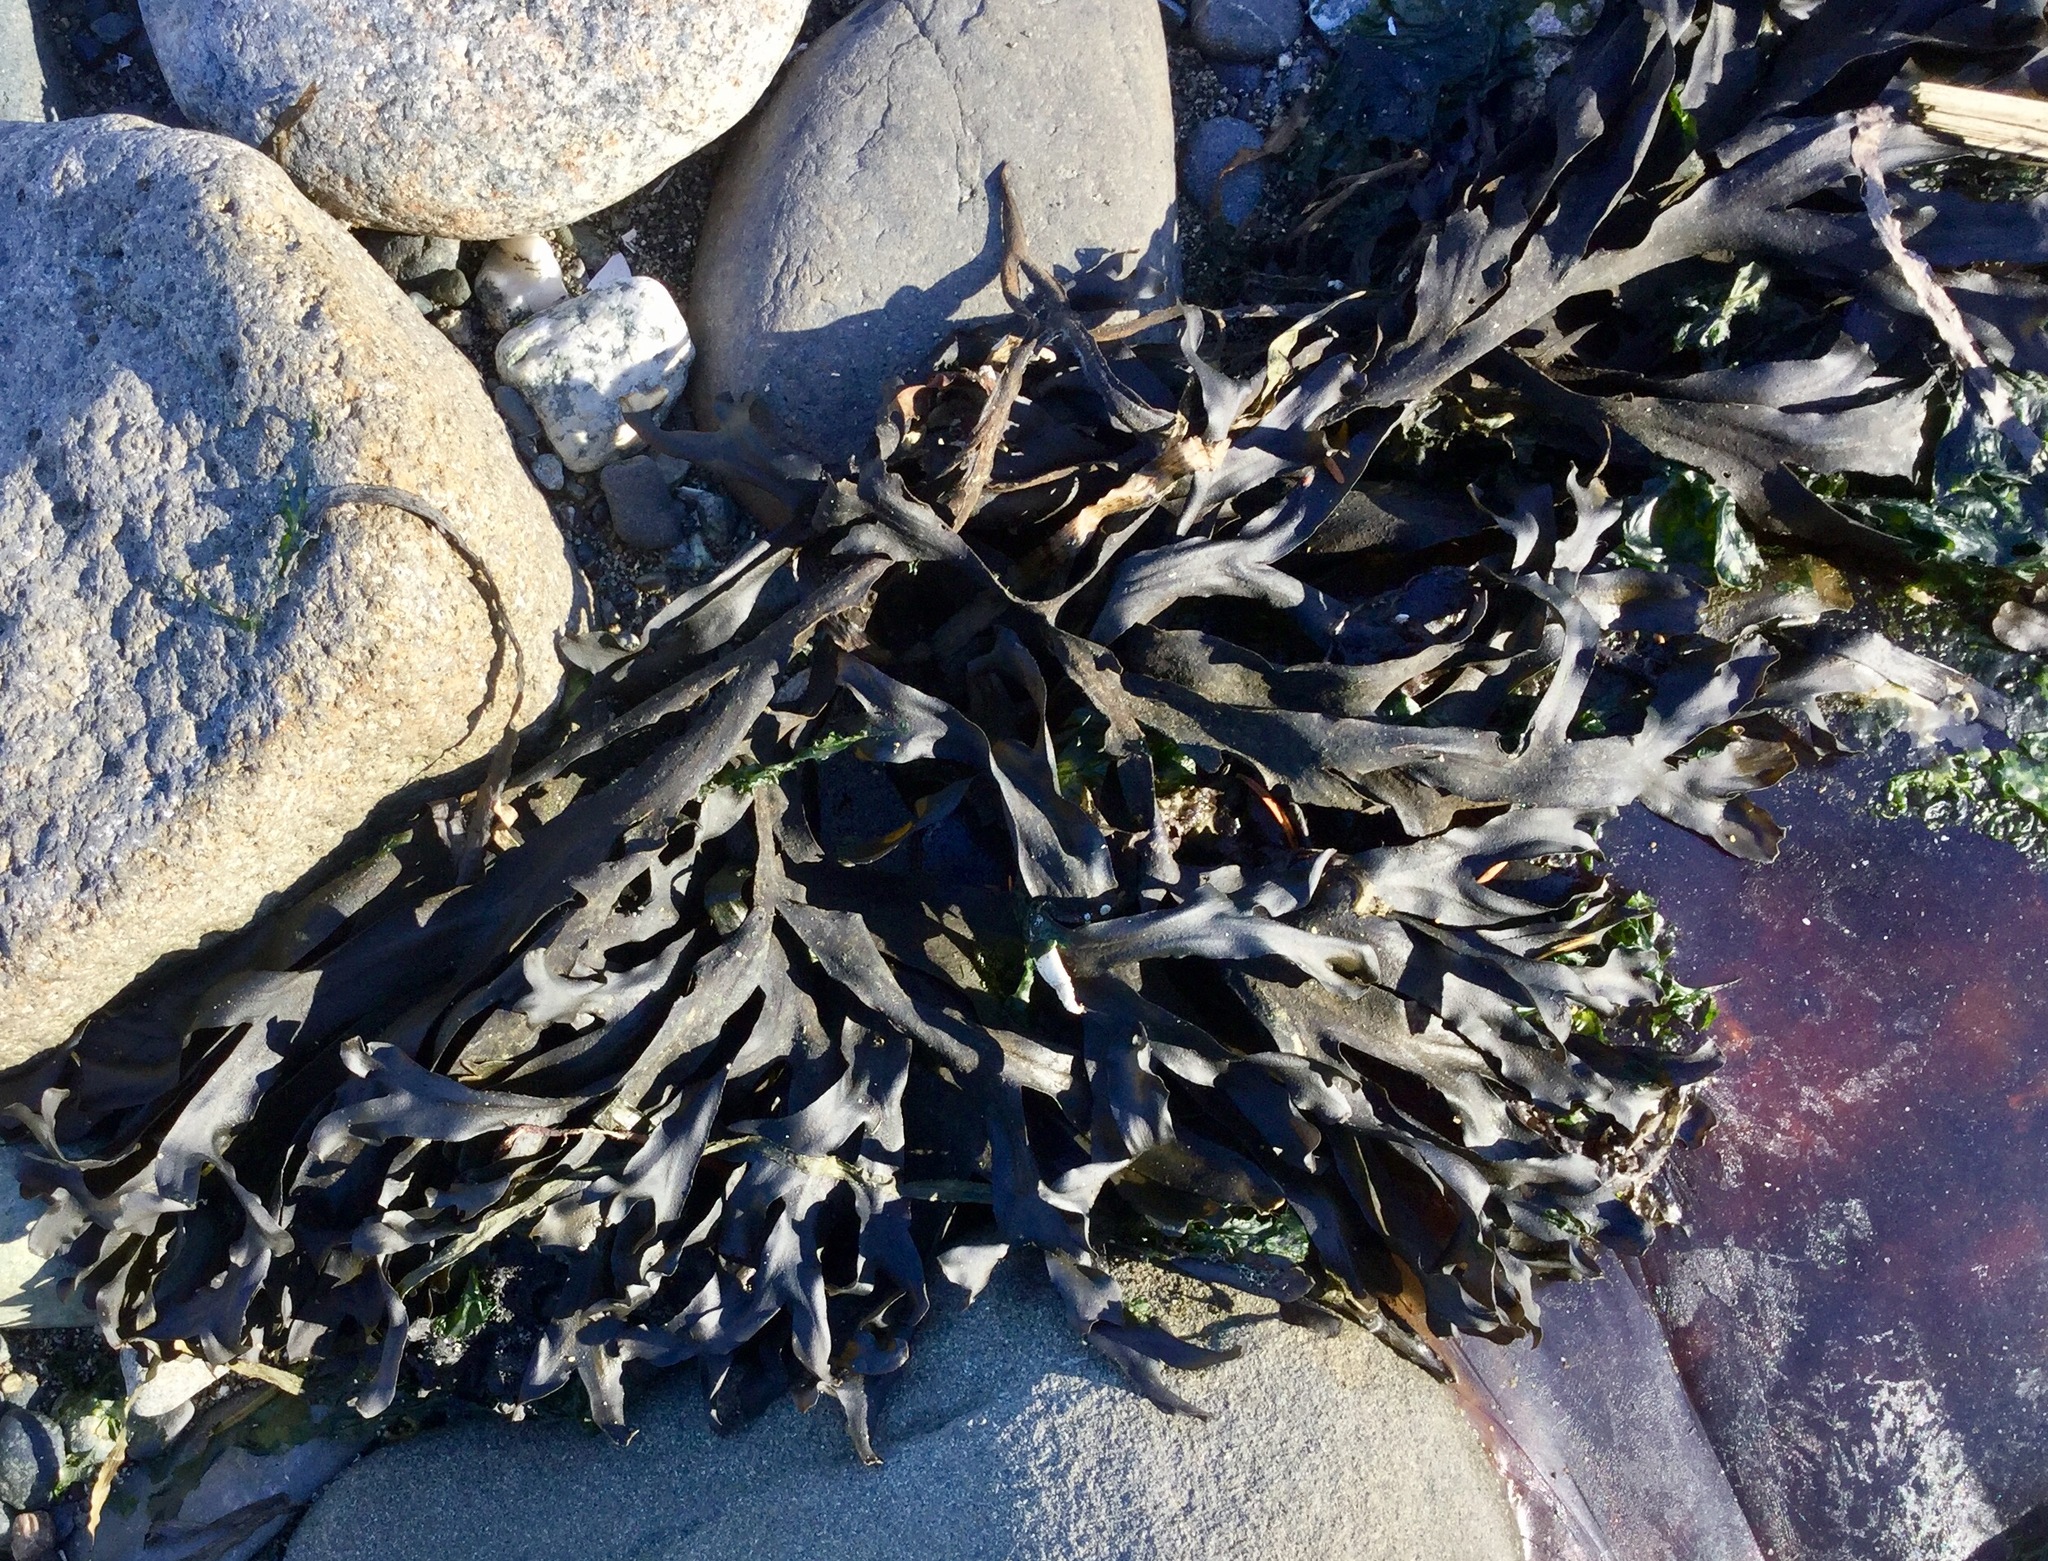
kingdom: Chromista
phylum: Ochrophyta
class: Phaeophyceae
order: Fucales
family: Fucaceae
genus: Fucus
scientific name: Fucus distichus
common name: Rockweed
